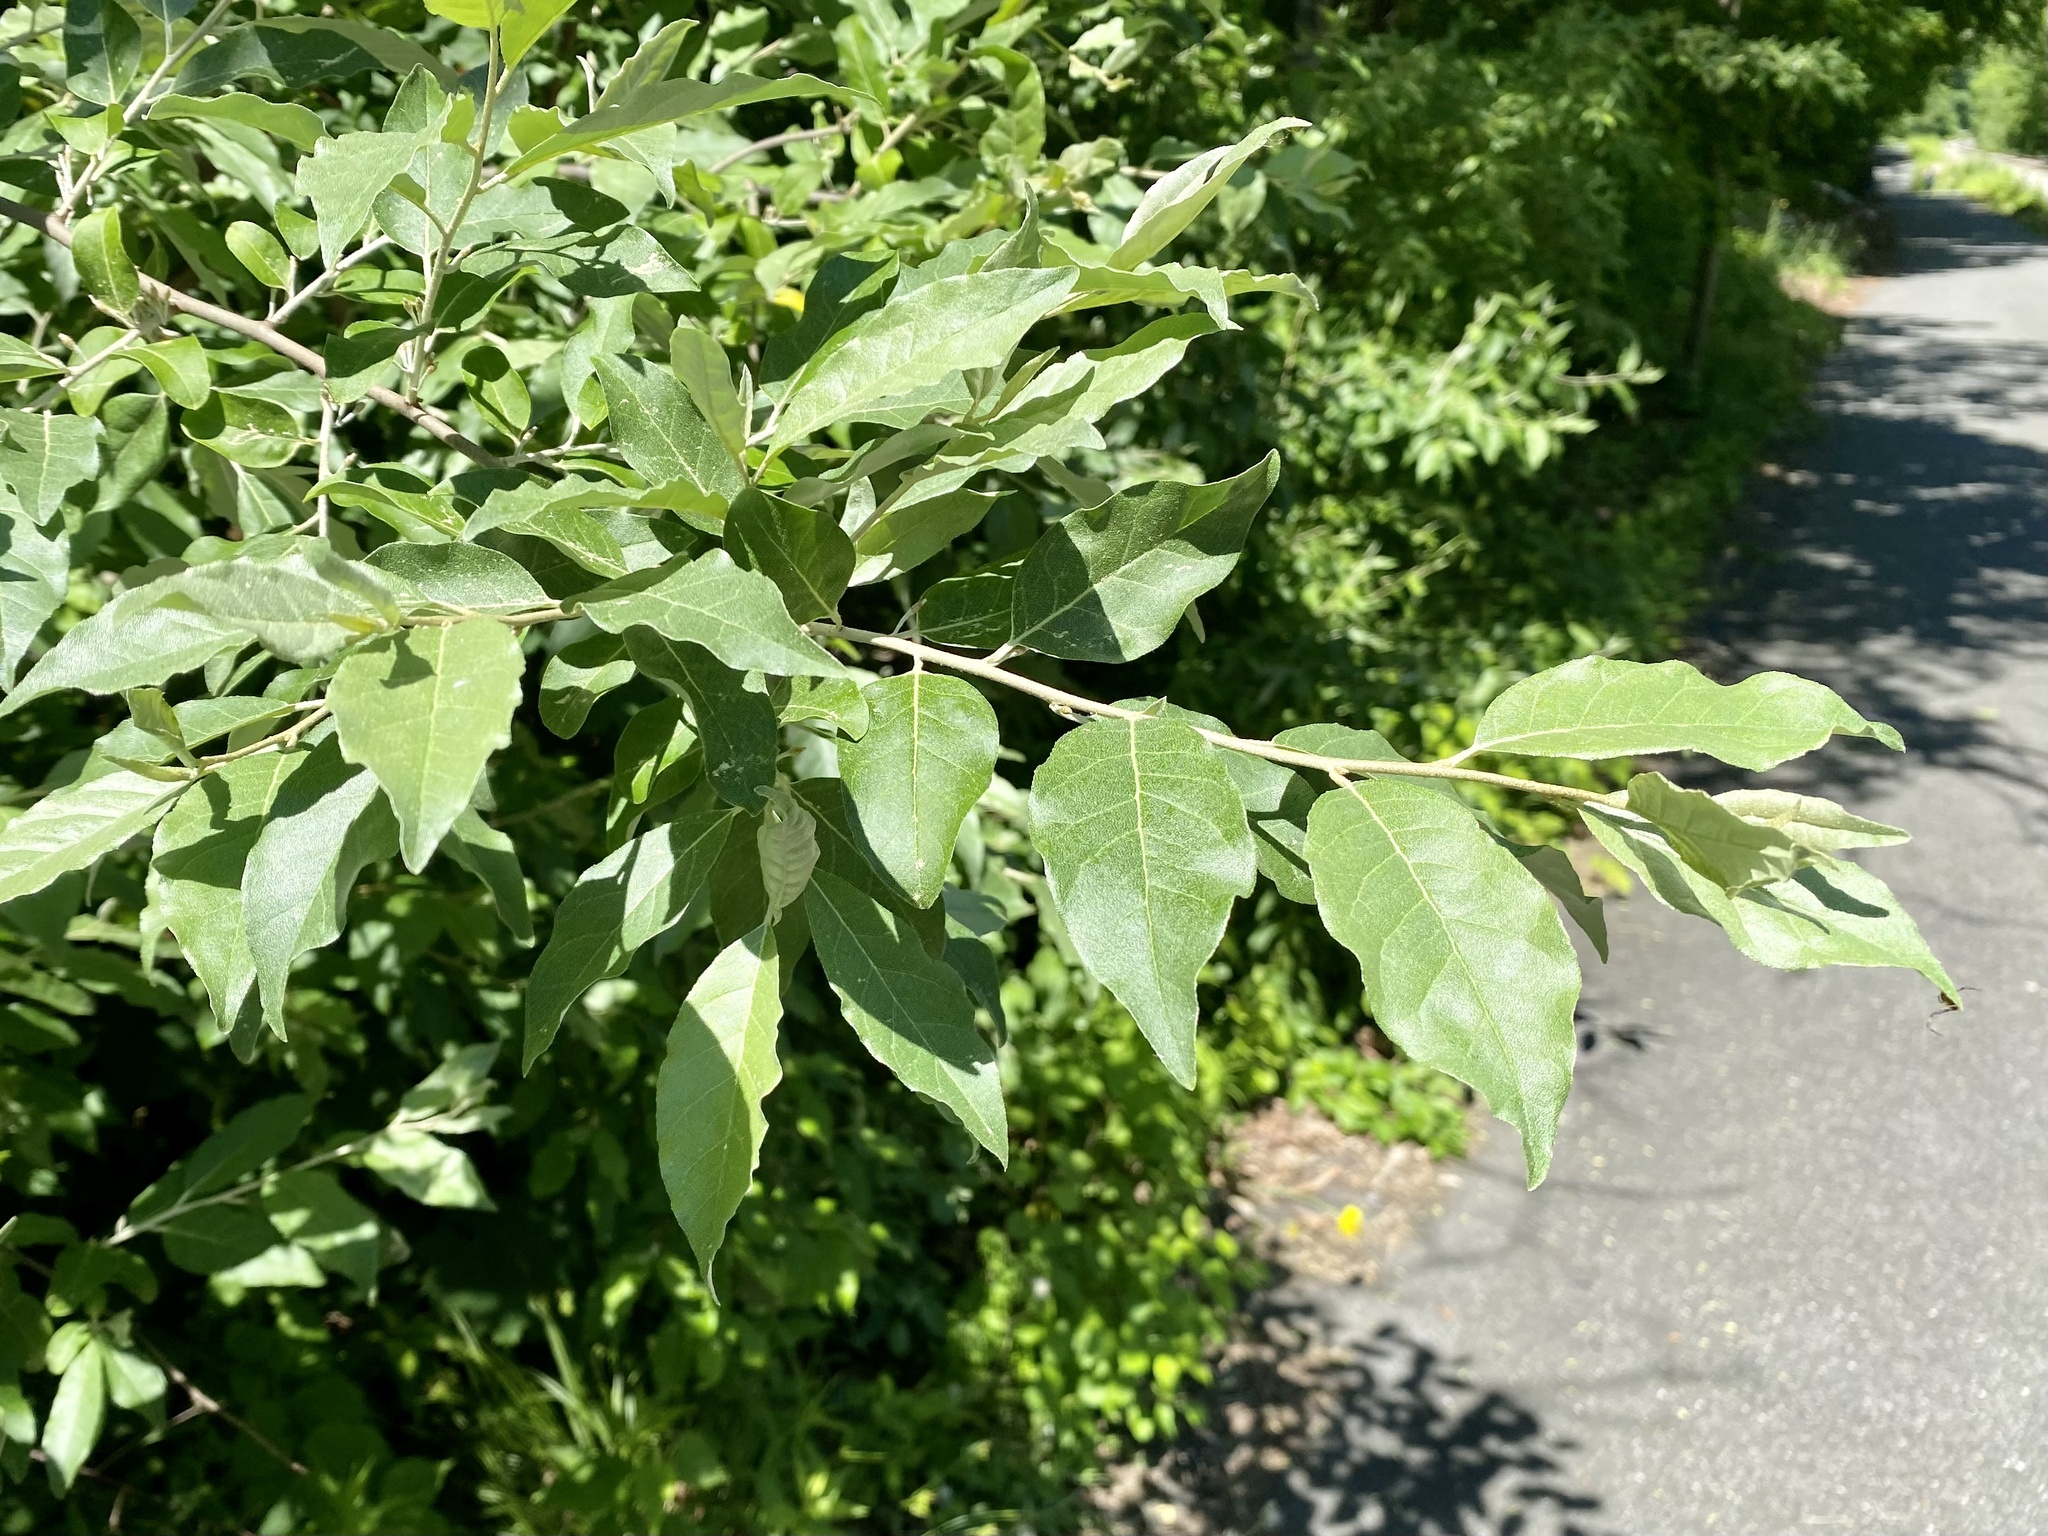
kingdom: Plantae
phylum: Tracheophyta
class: Magnoliopsida
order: Rosales
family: Elaeagnaceae
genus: Elaeagnus
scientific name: Elaeagnus umbellata
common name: Autumn olive
